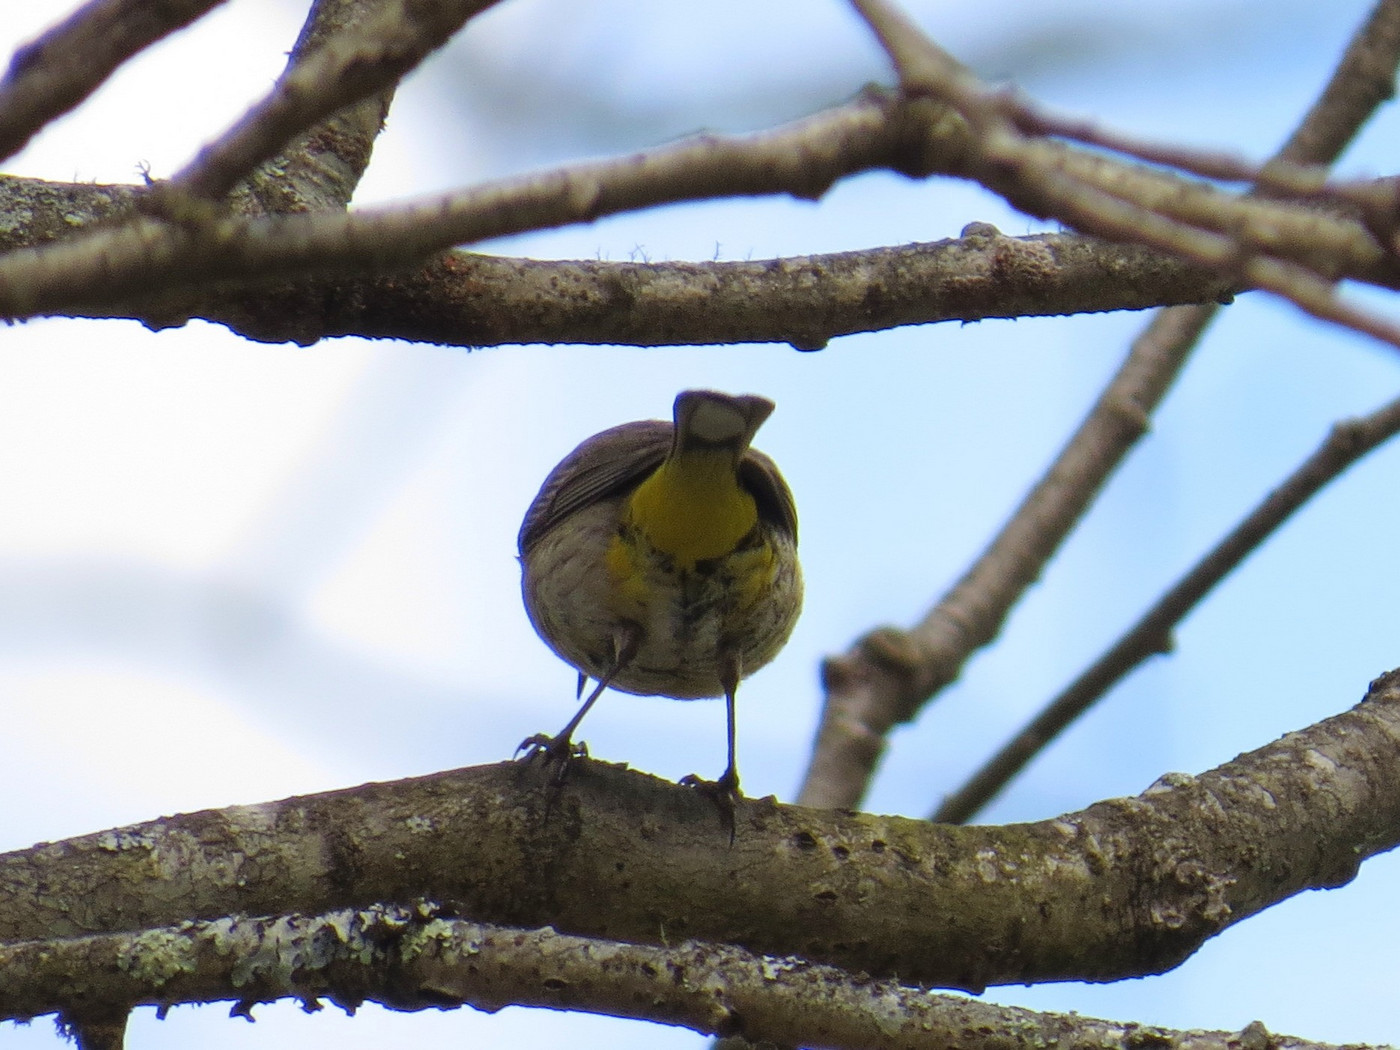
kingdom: Animalia
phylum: Chordata
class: Aves
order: Passeriformes
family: Parulidae
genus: Setophaga
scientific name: Setophaga palmarum
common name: Palm warbler
